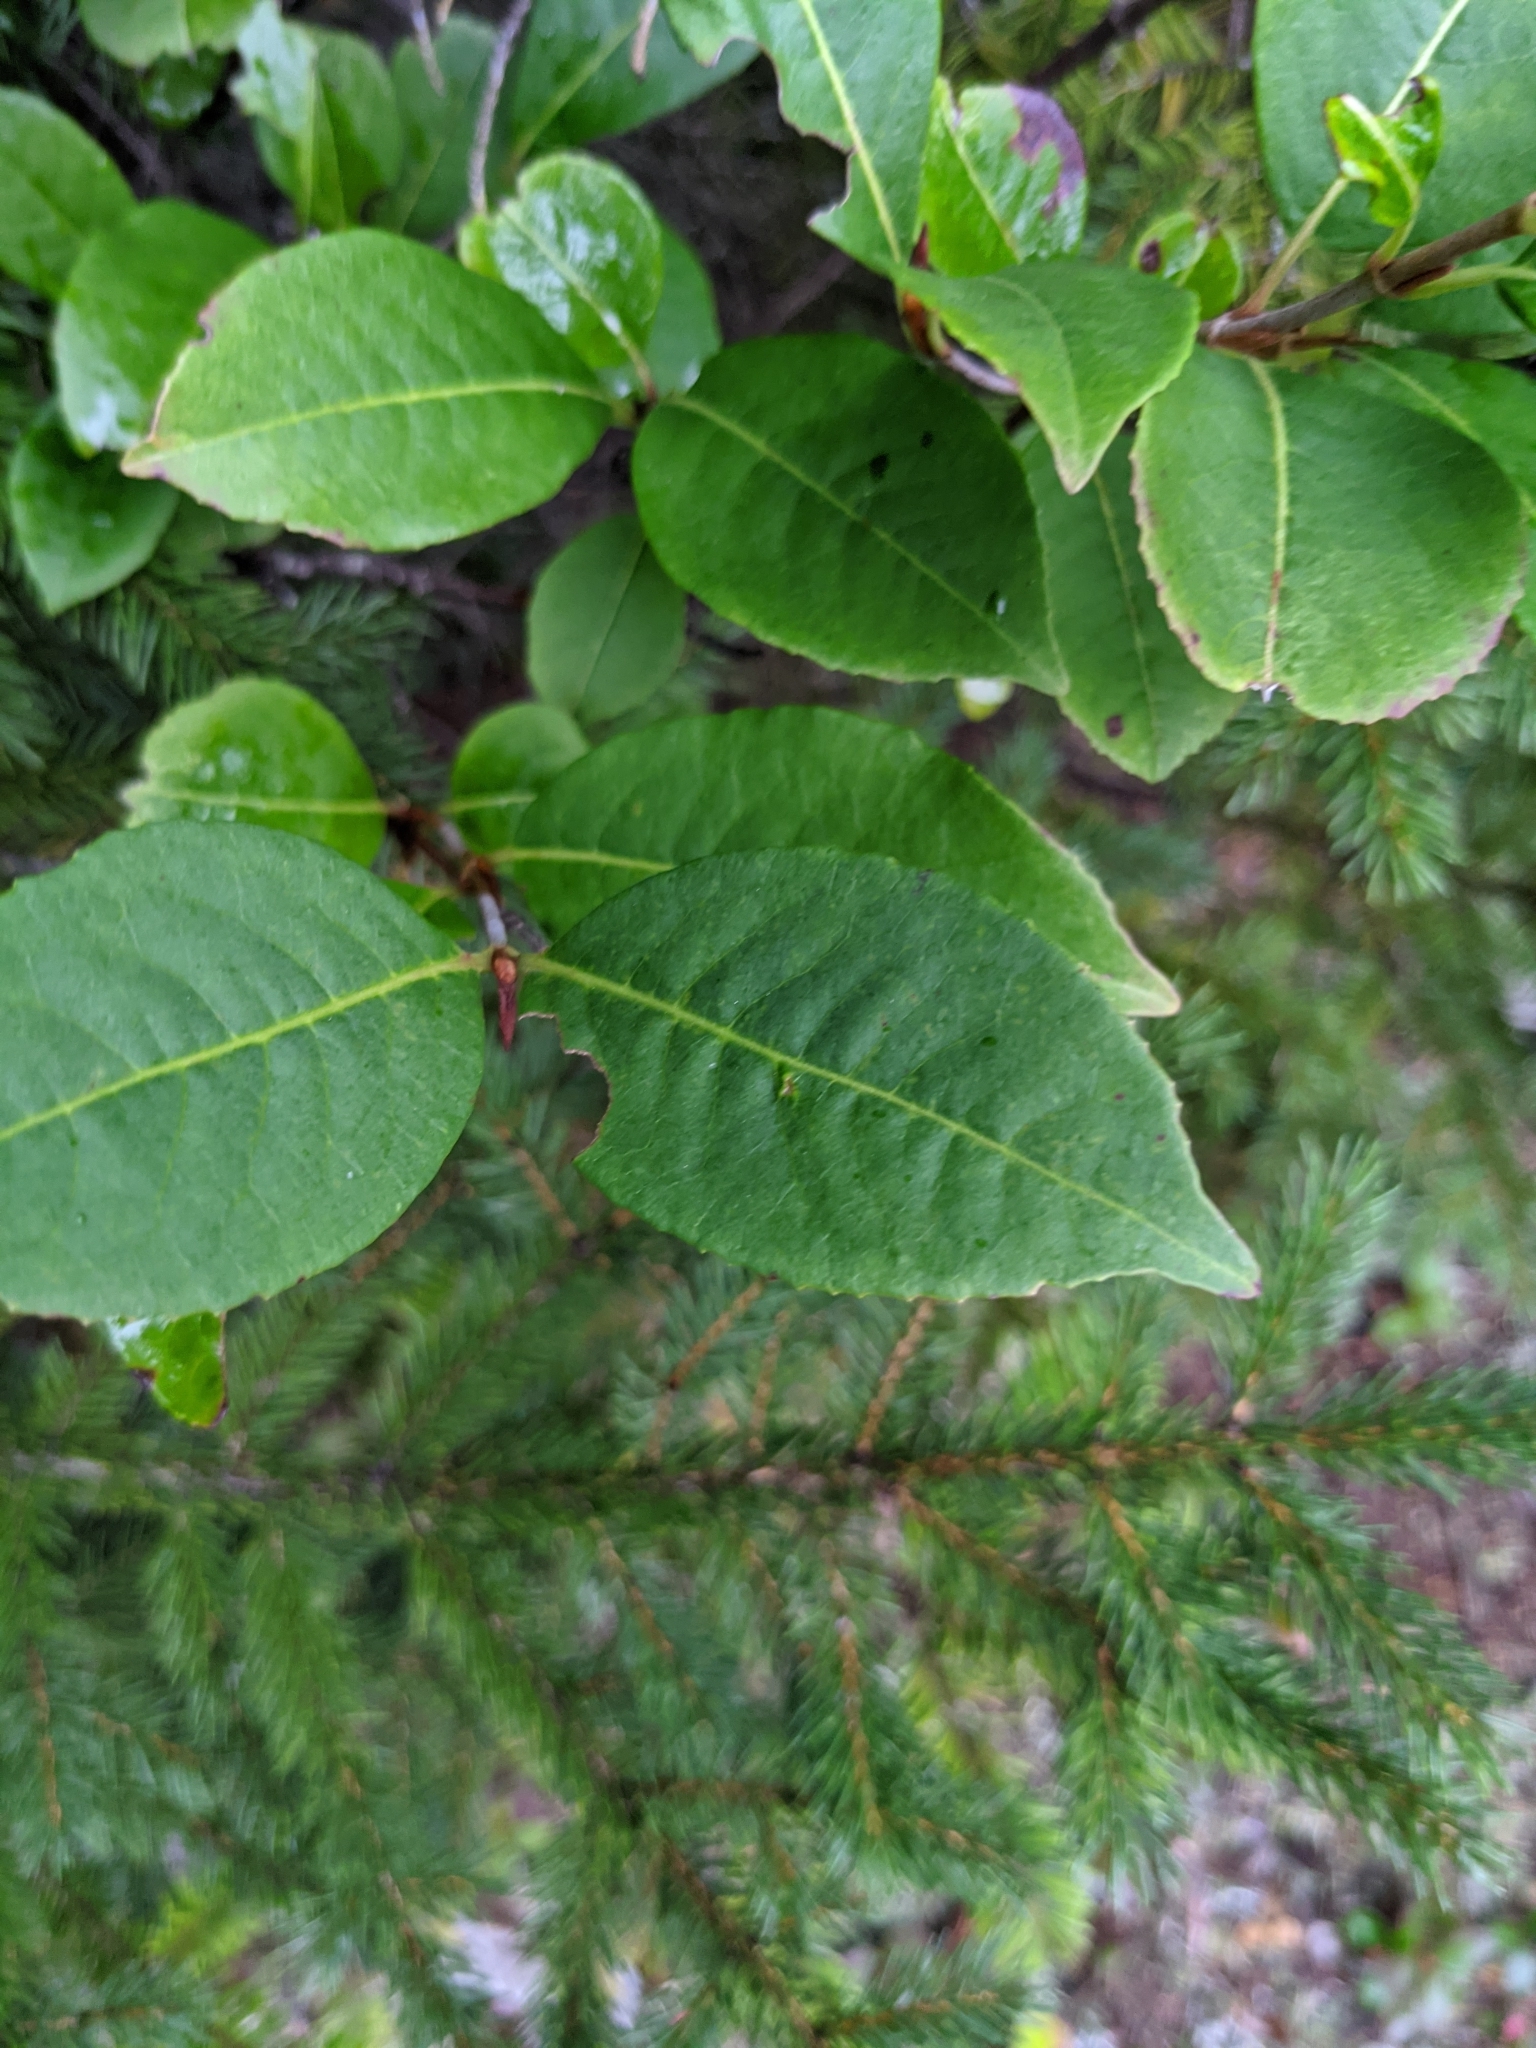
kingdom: Plantae
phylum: Tracheophyta
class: Magnoliopsida
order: Dipsacales
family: Viburnaceae
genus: Viburnum
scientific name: Viburnum cassinoides
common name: Swamp haw
